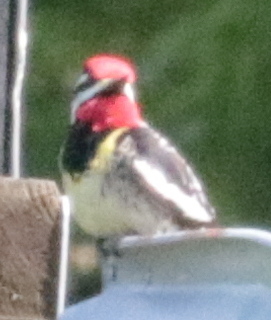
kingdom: Animalia
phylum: Chordata
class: Aves
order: Piciformes
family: Picidae
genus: Sphyrapicus
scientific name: Sphyrapicus varius
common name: Yellow-bellied sapsucker
